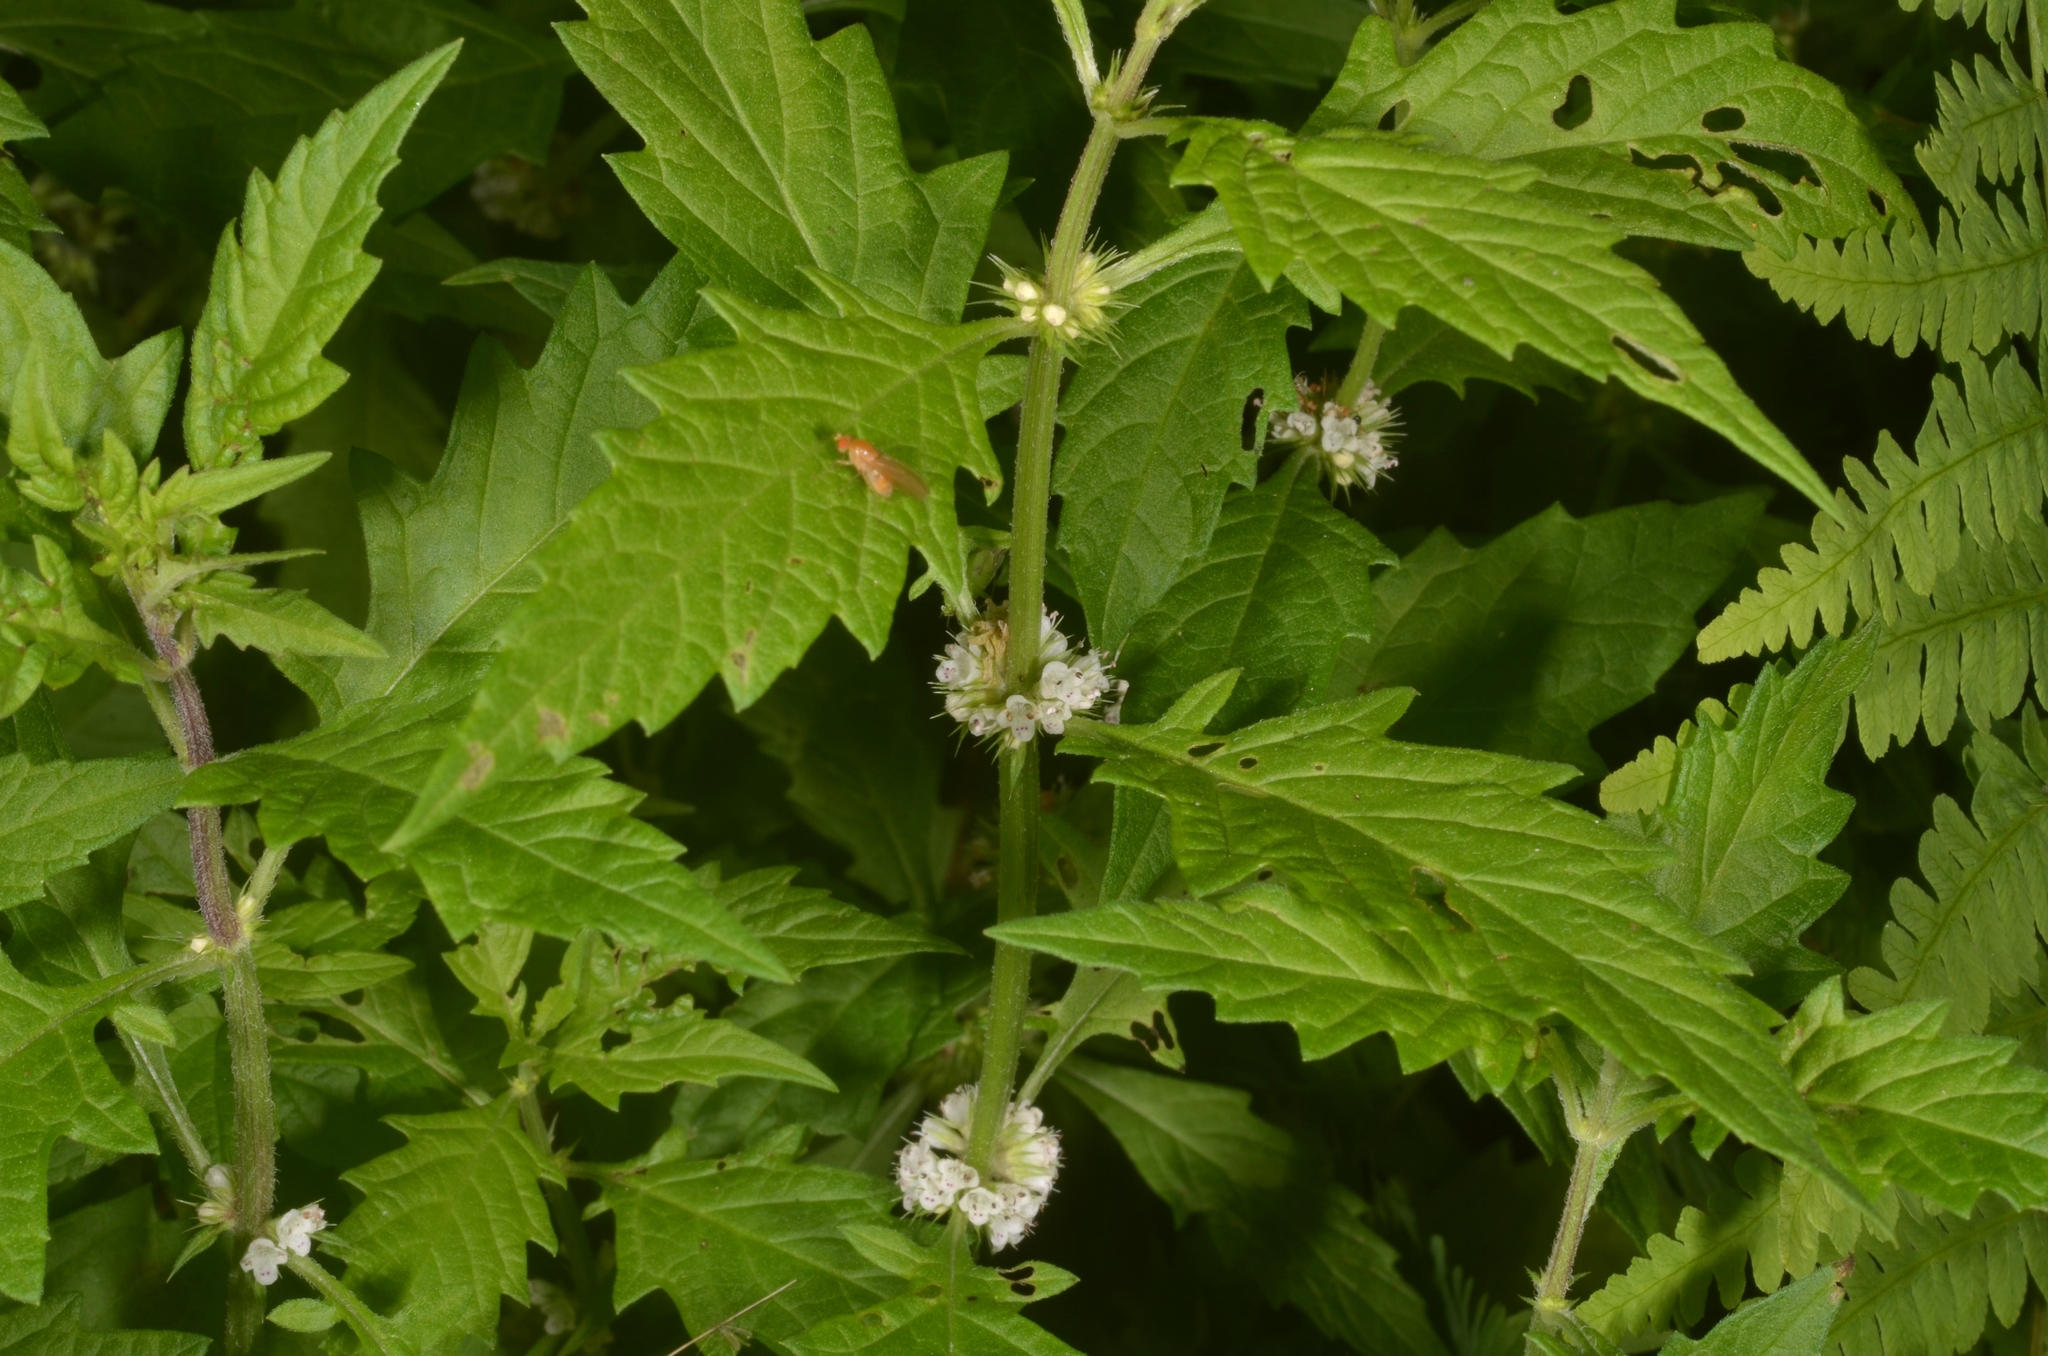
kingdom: Plantae
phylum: Tracheophyta
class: Magnoliopsida
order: Lamiales
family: Lamiaceae
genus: Lycopus
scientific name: Lycopus europaeus
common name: European bugleweed
